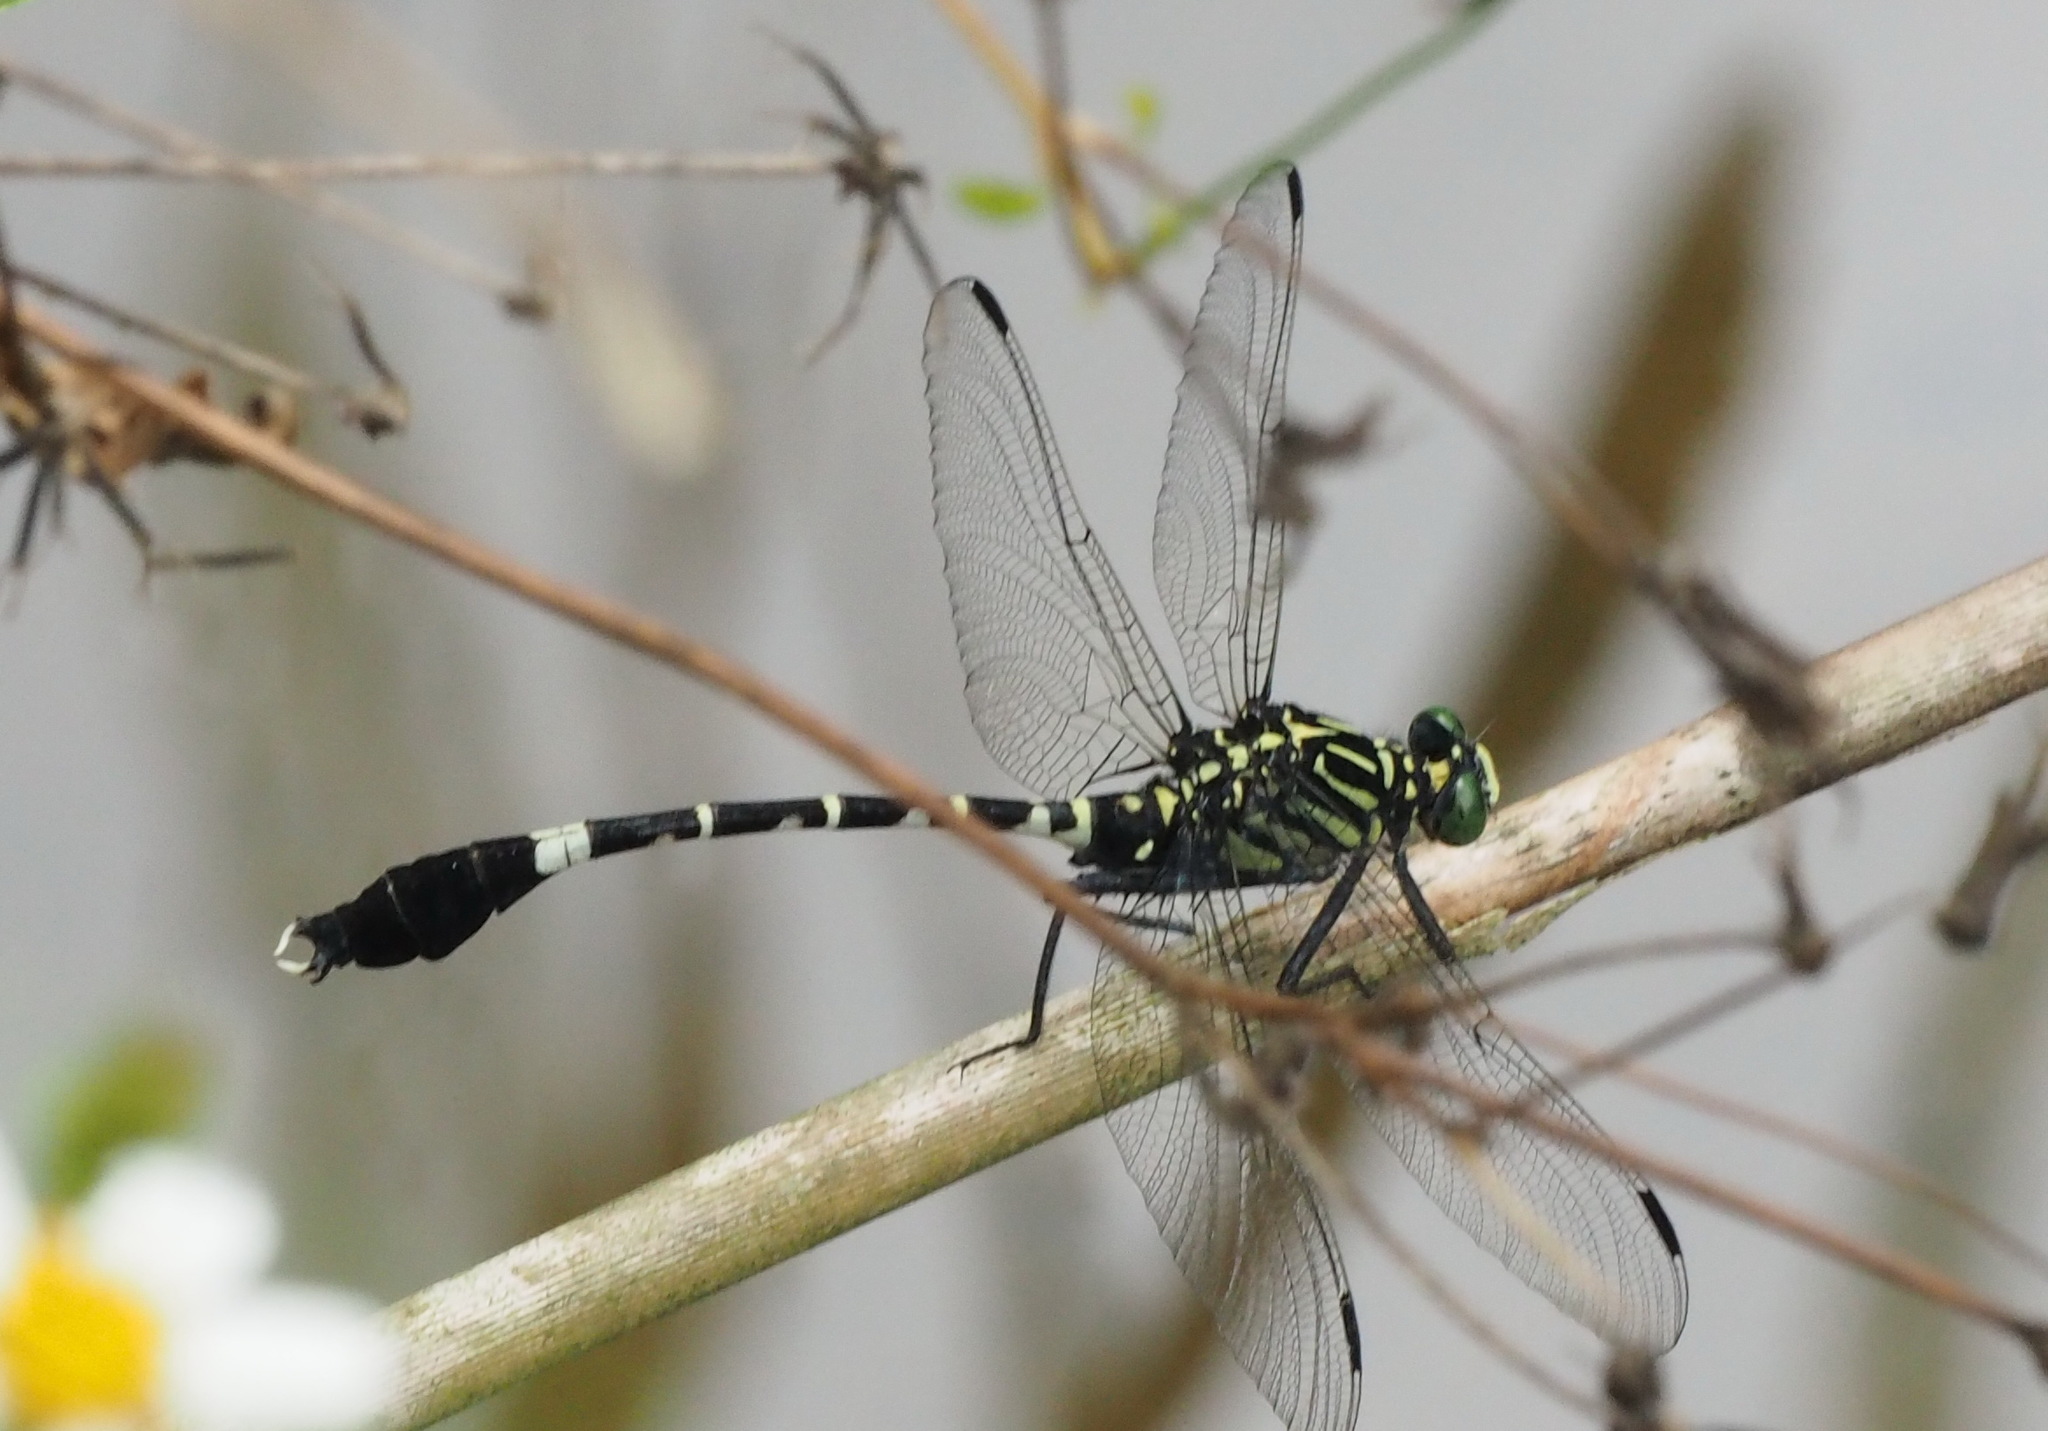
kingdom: Animalia
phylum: Arthropoda
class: Insecta
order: Odonata
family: Gomphidae
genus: Merogomphus
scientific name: Merogomphus pavici
